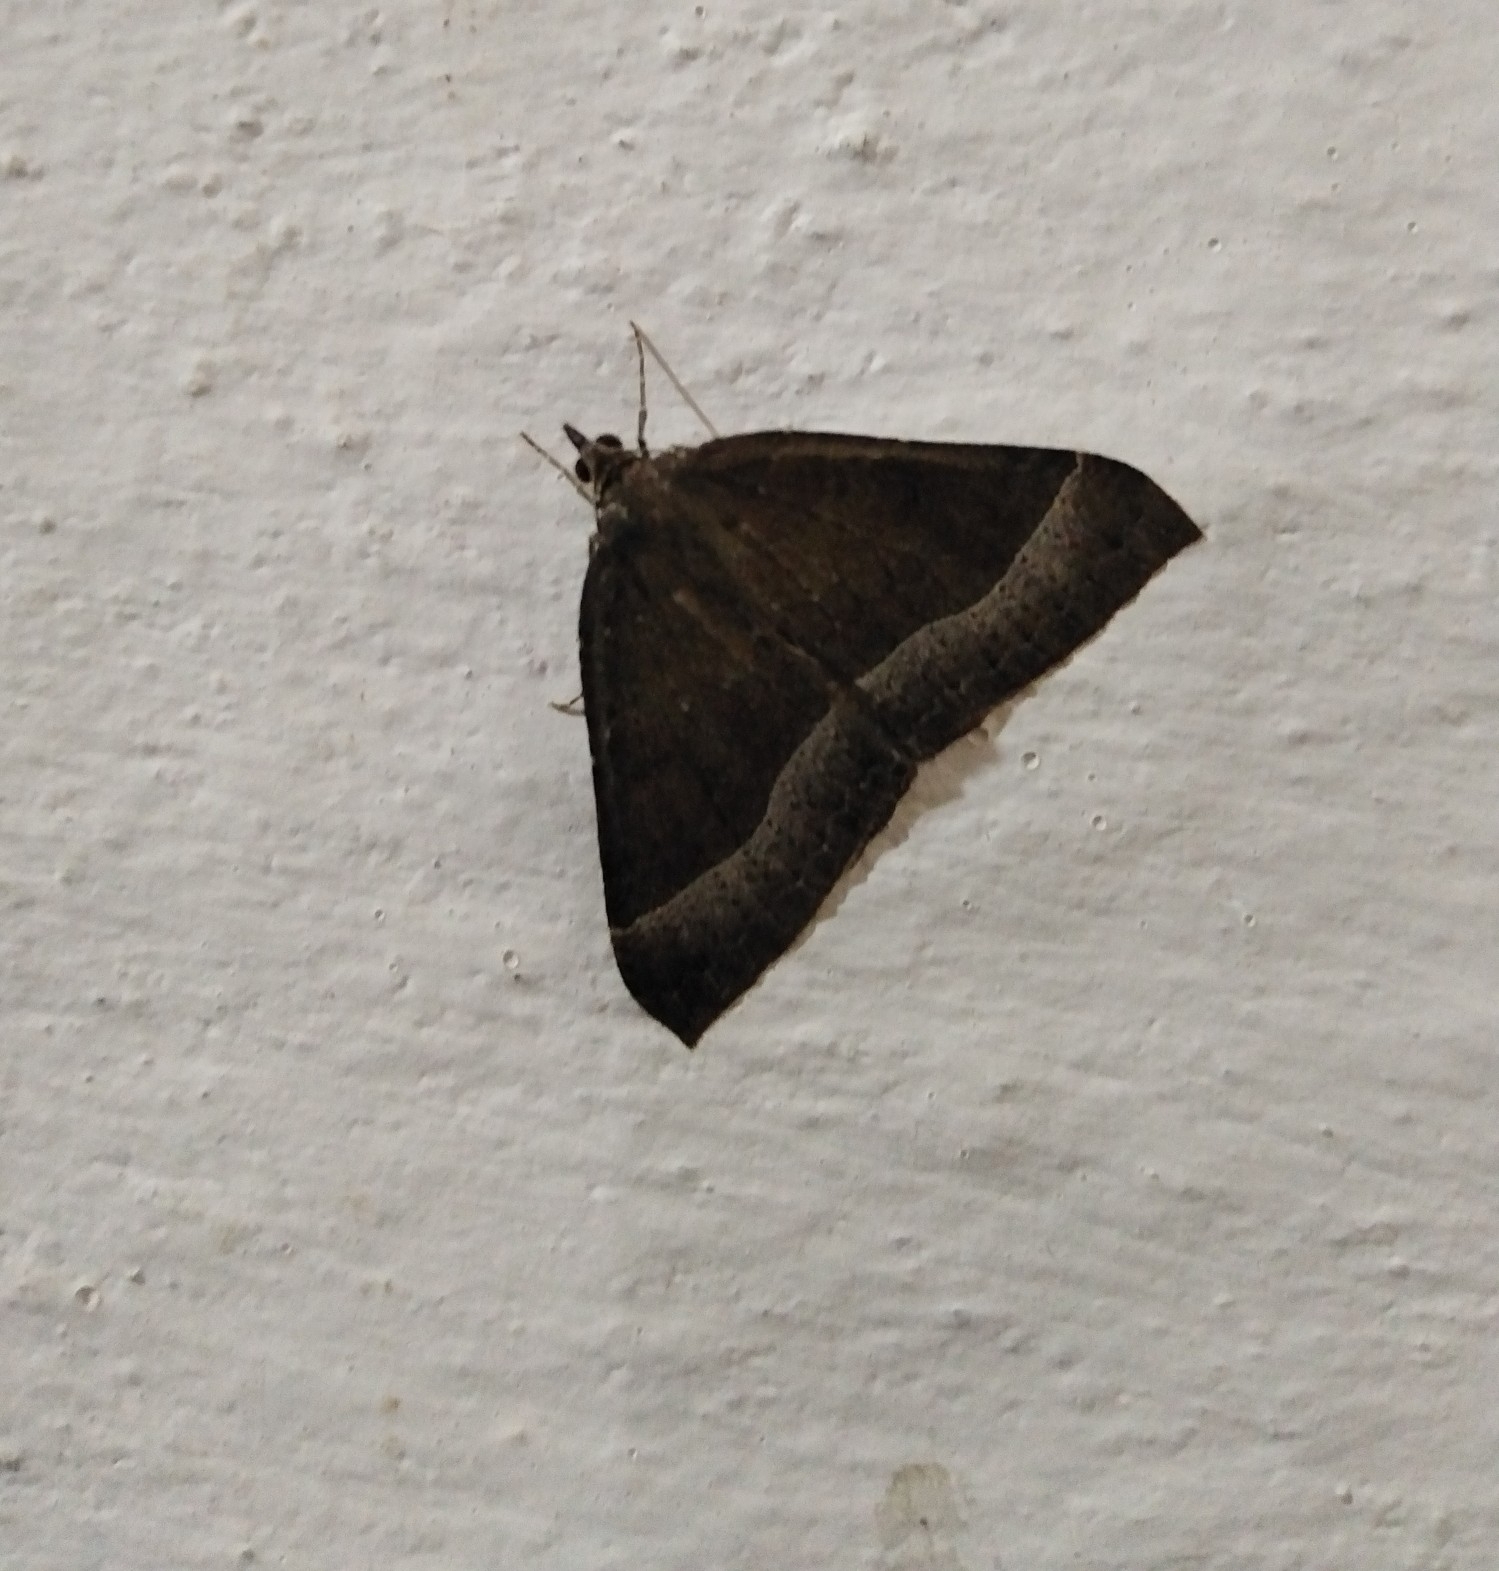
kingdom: Animalia
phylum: Arthropoda
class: Insecta
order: Lepidoptera
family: Geometridae
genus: Ennada
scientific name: Ennada flavaria
